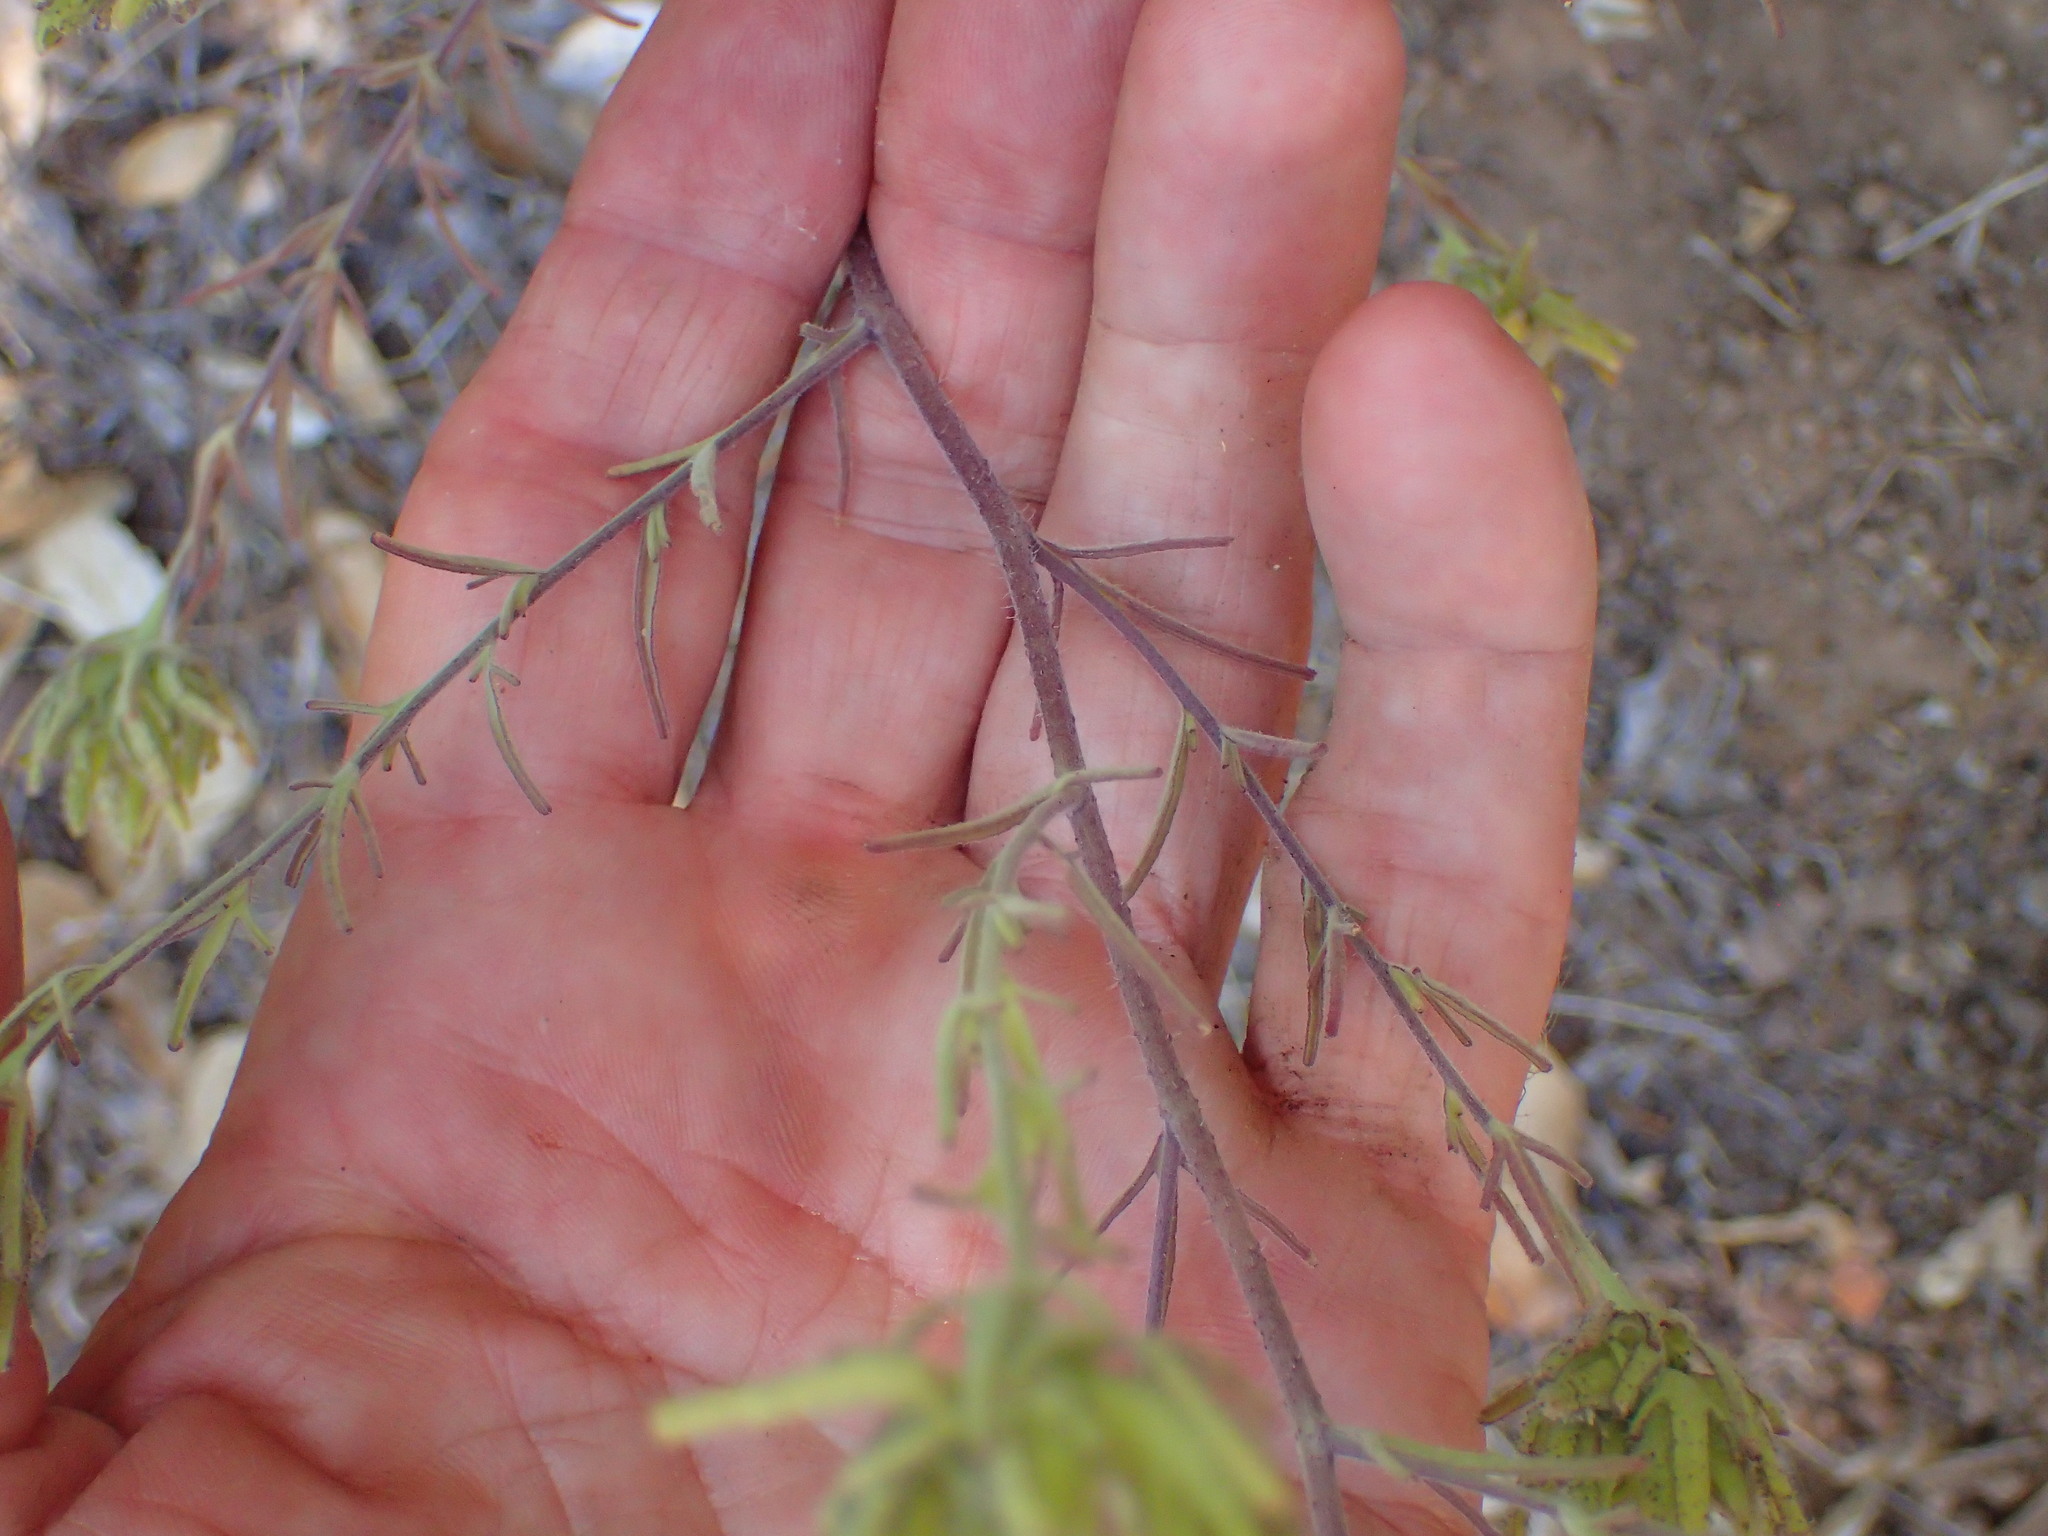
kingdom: Plantae
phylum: Tracheophyta
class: Magnoliopsida
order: Lamiales
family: Orobanchaceae
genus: Cordylanthus
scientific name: Cordylanthus rigidus
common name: Stiff-branch bird's-beak
